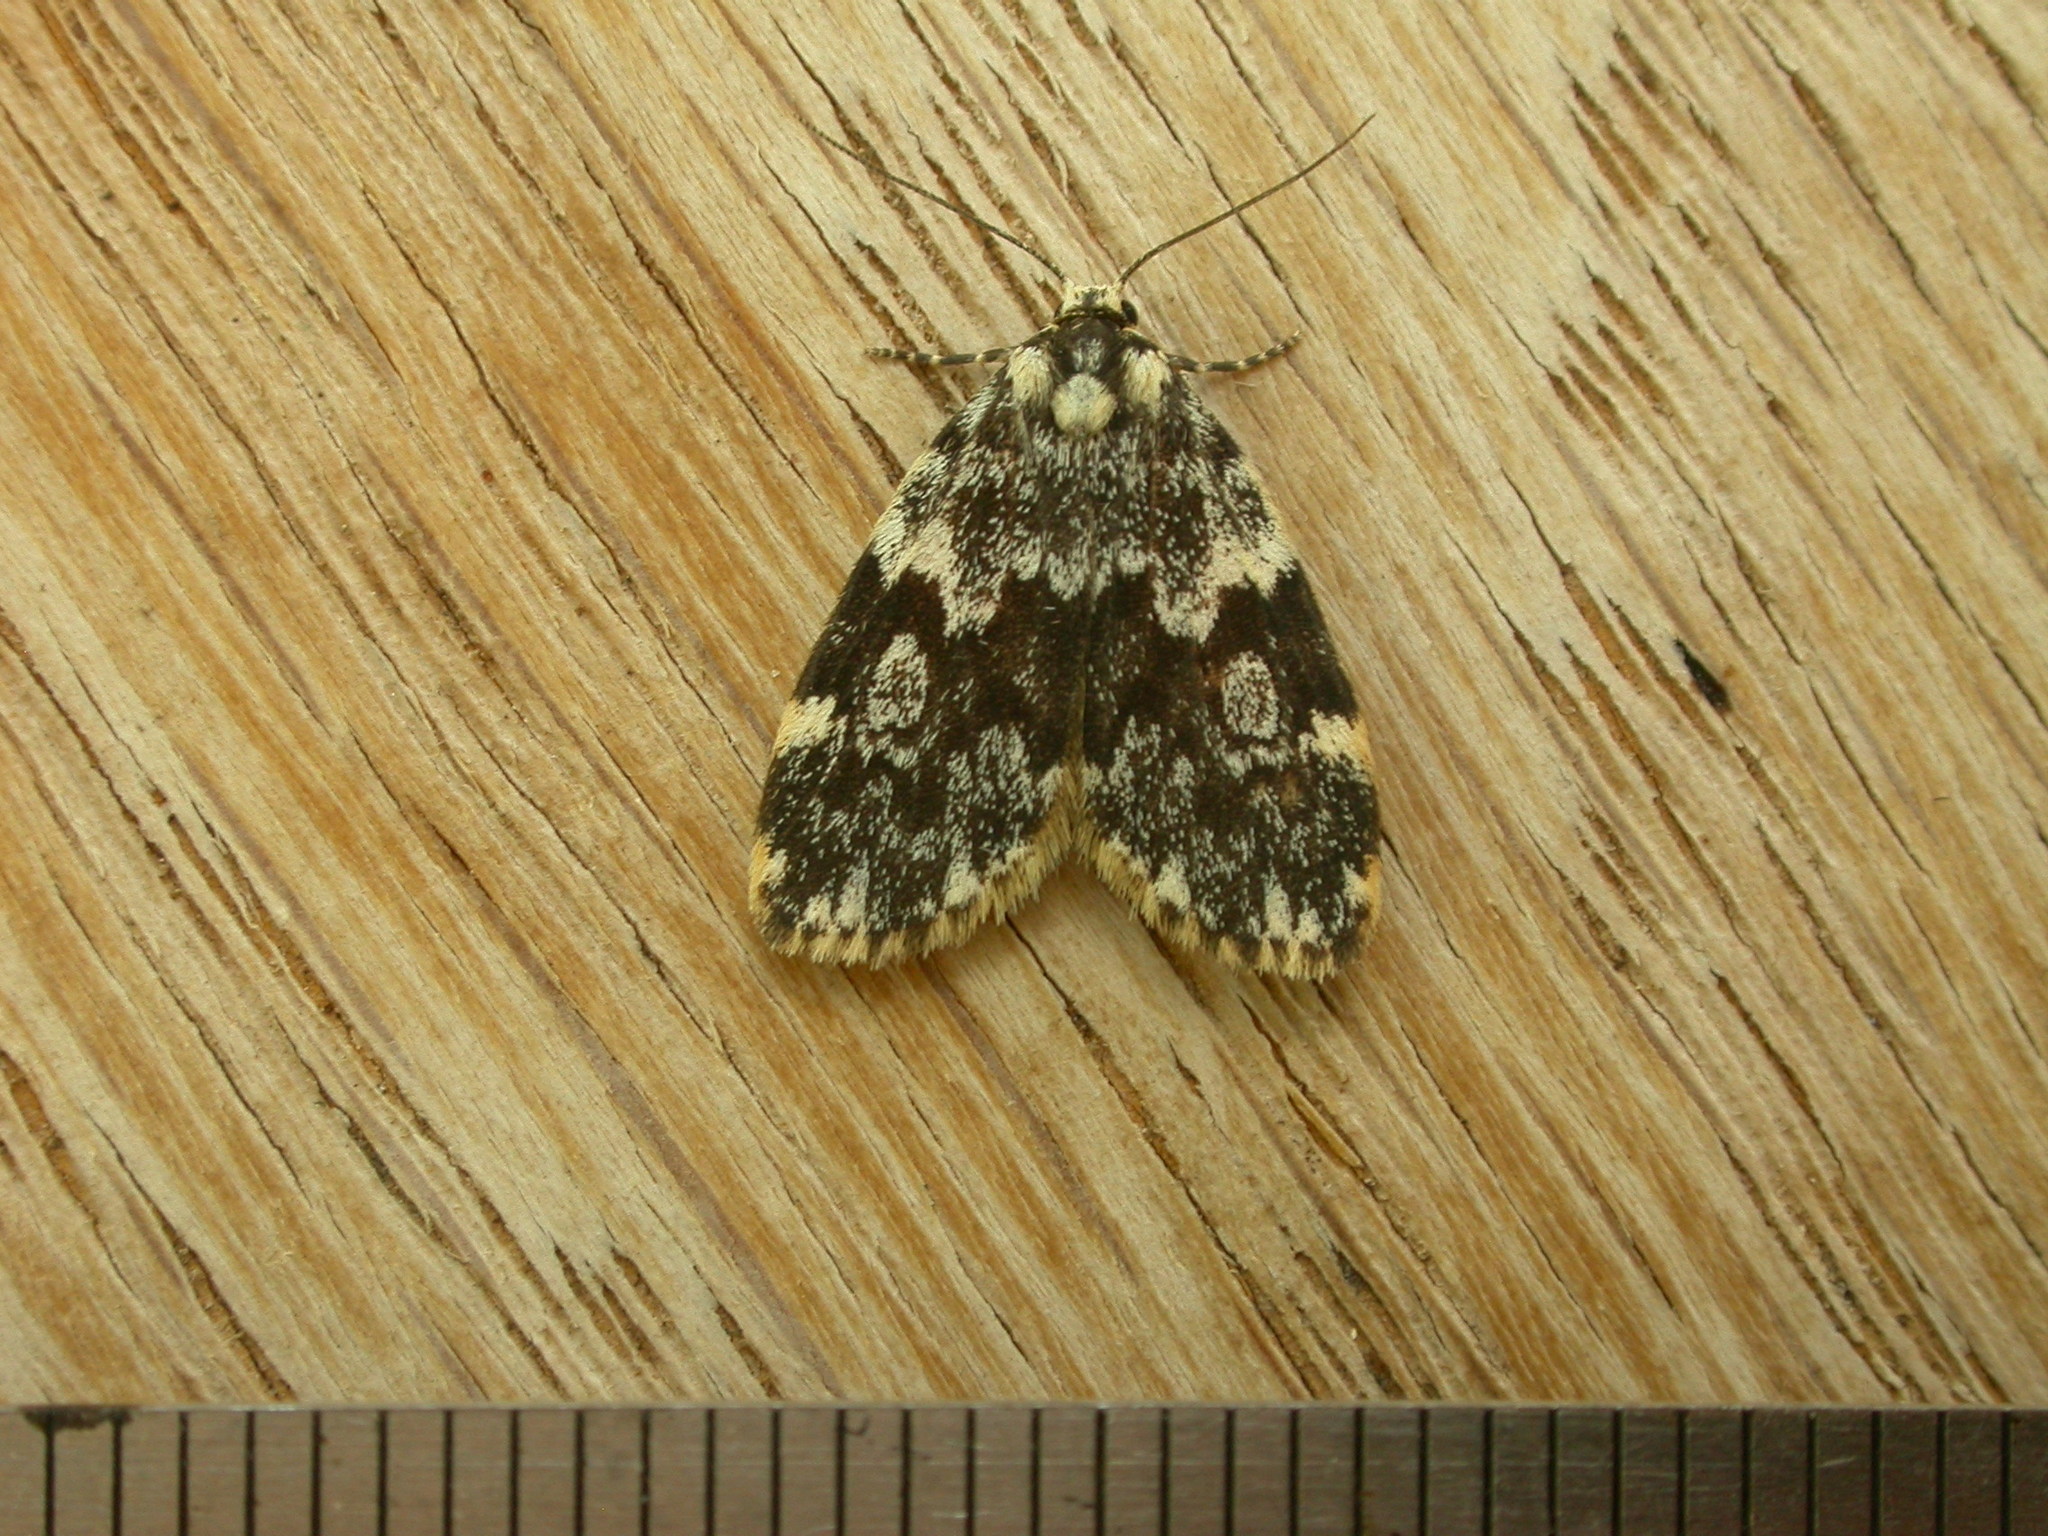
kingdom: Animalia
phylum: Arthropoda
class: Insecta
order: Lepidoptera
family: Erebidae
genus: Halone
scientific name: Halone coryphoea
